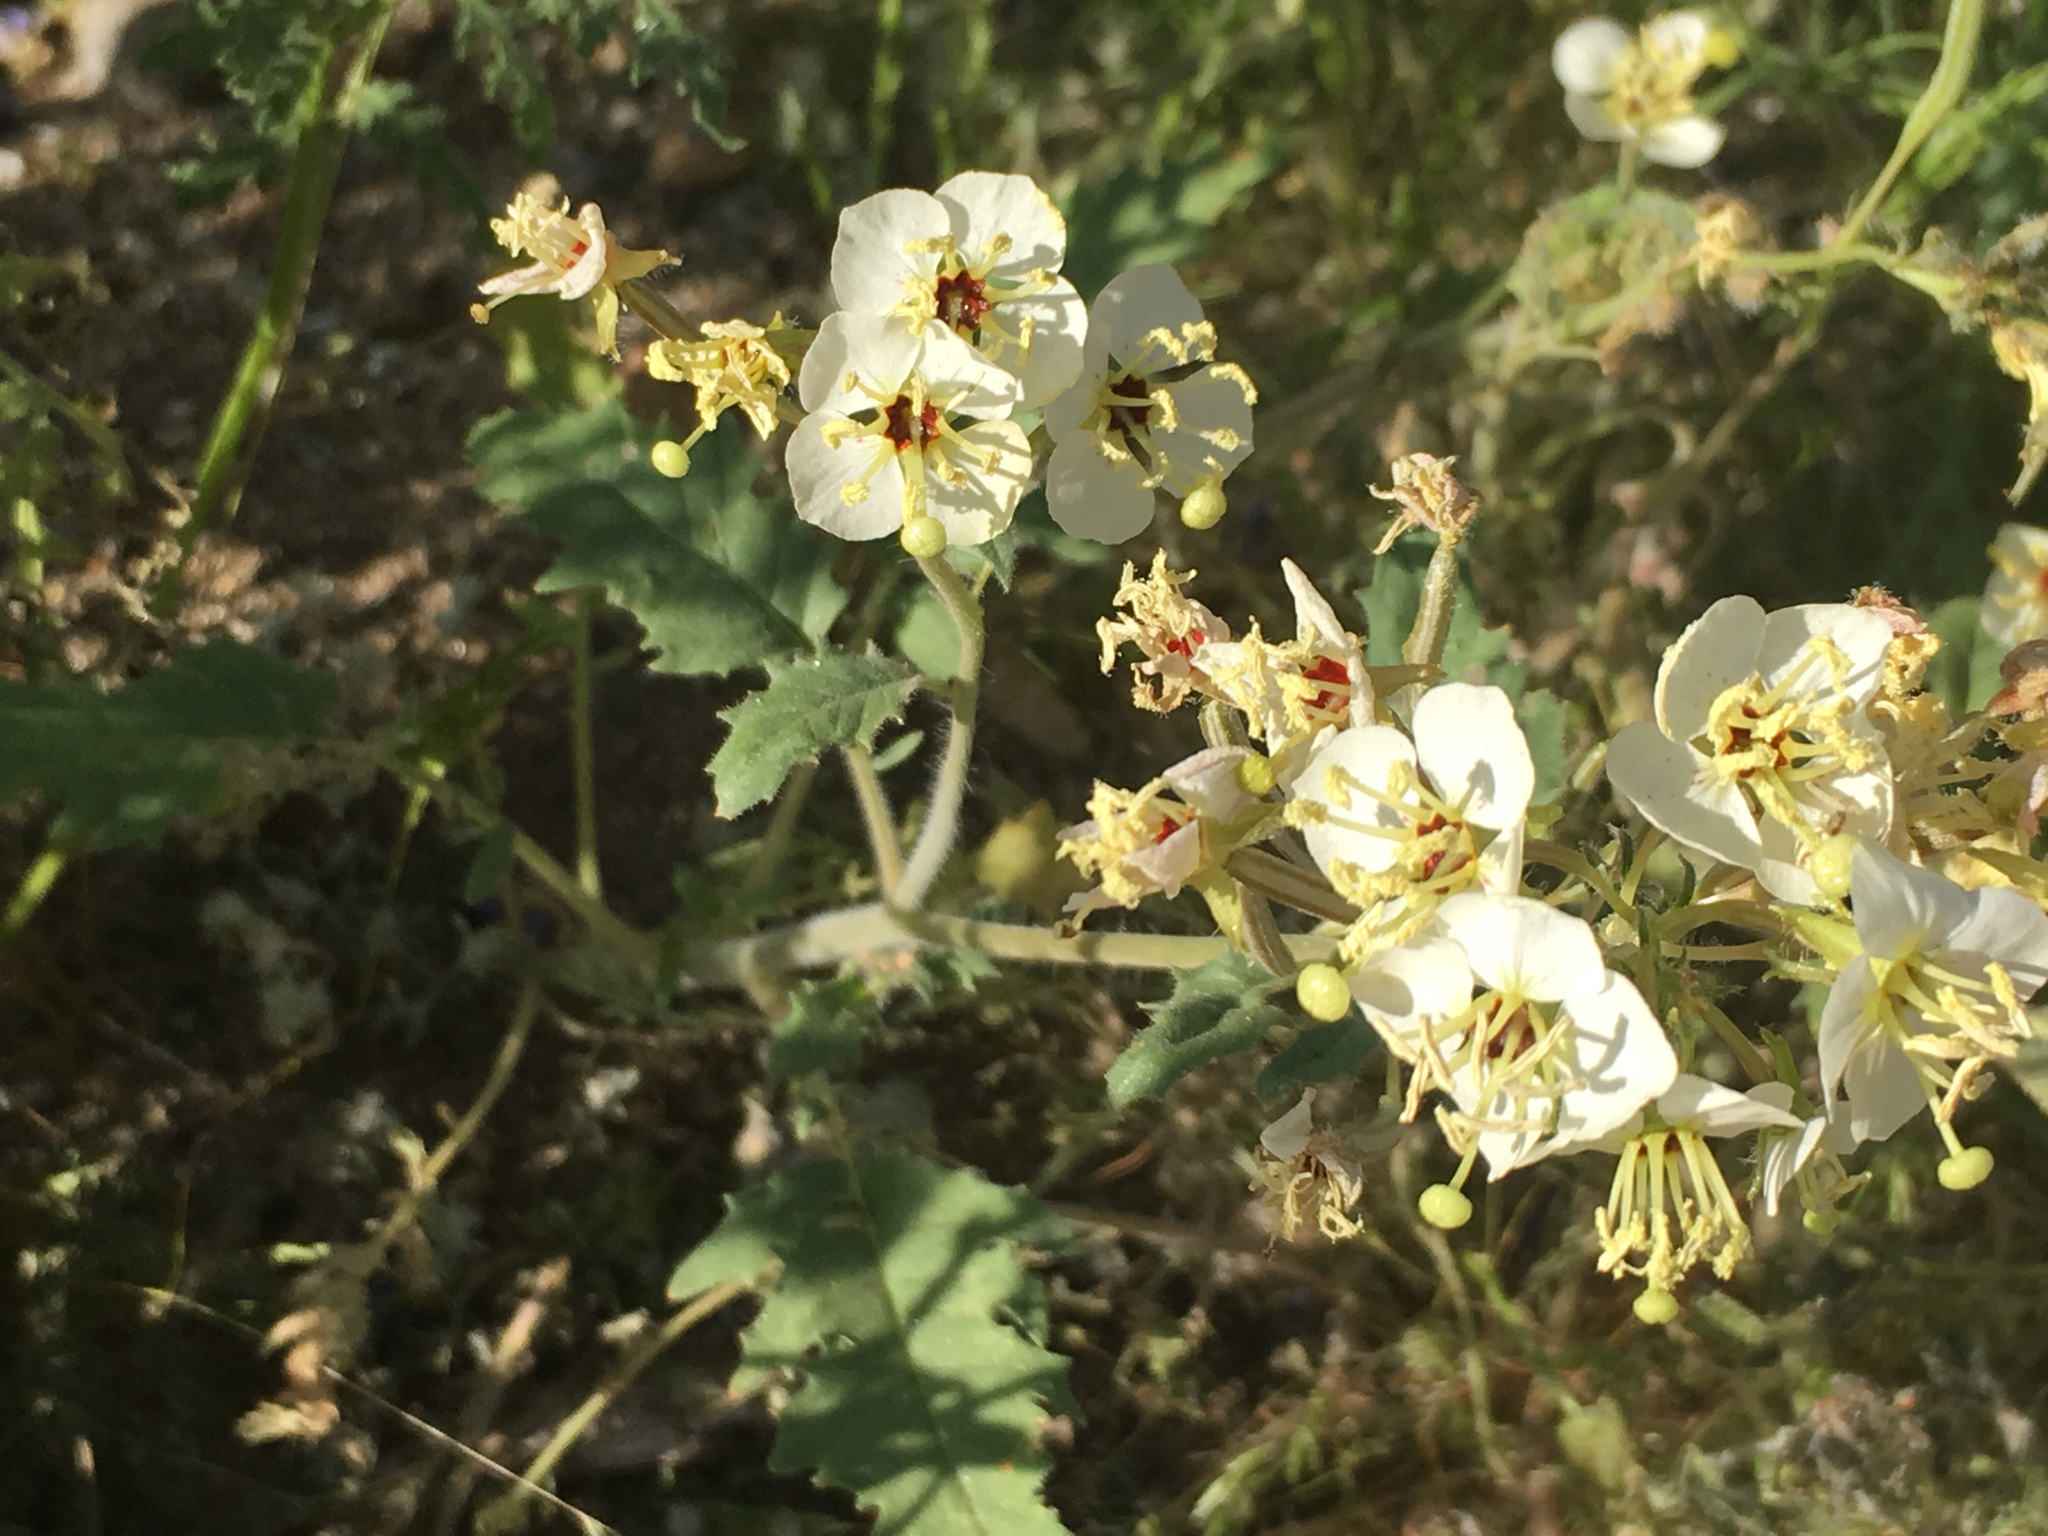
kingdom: Plantae
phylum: Tracheophyta
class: Magnoliopsida
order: Myrtales
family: Onagraceae
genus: Chylismia
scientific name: Chylismia claviformis
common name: Browneyes
